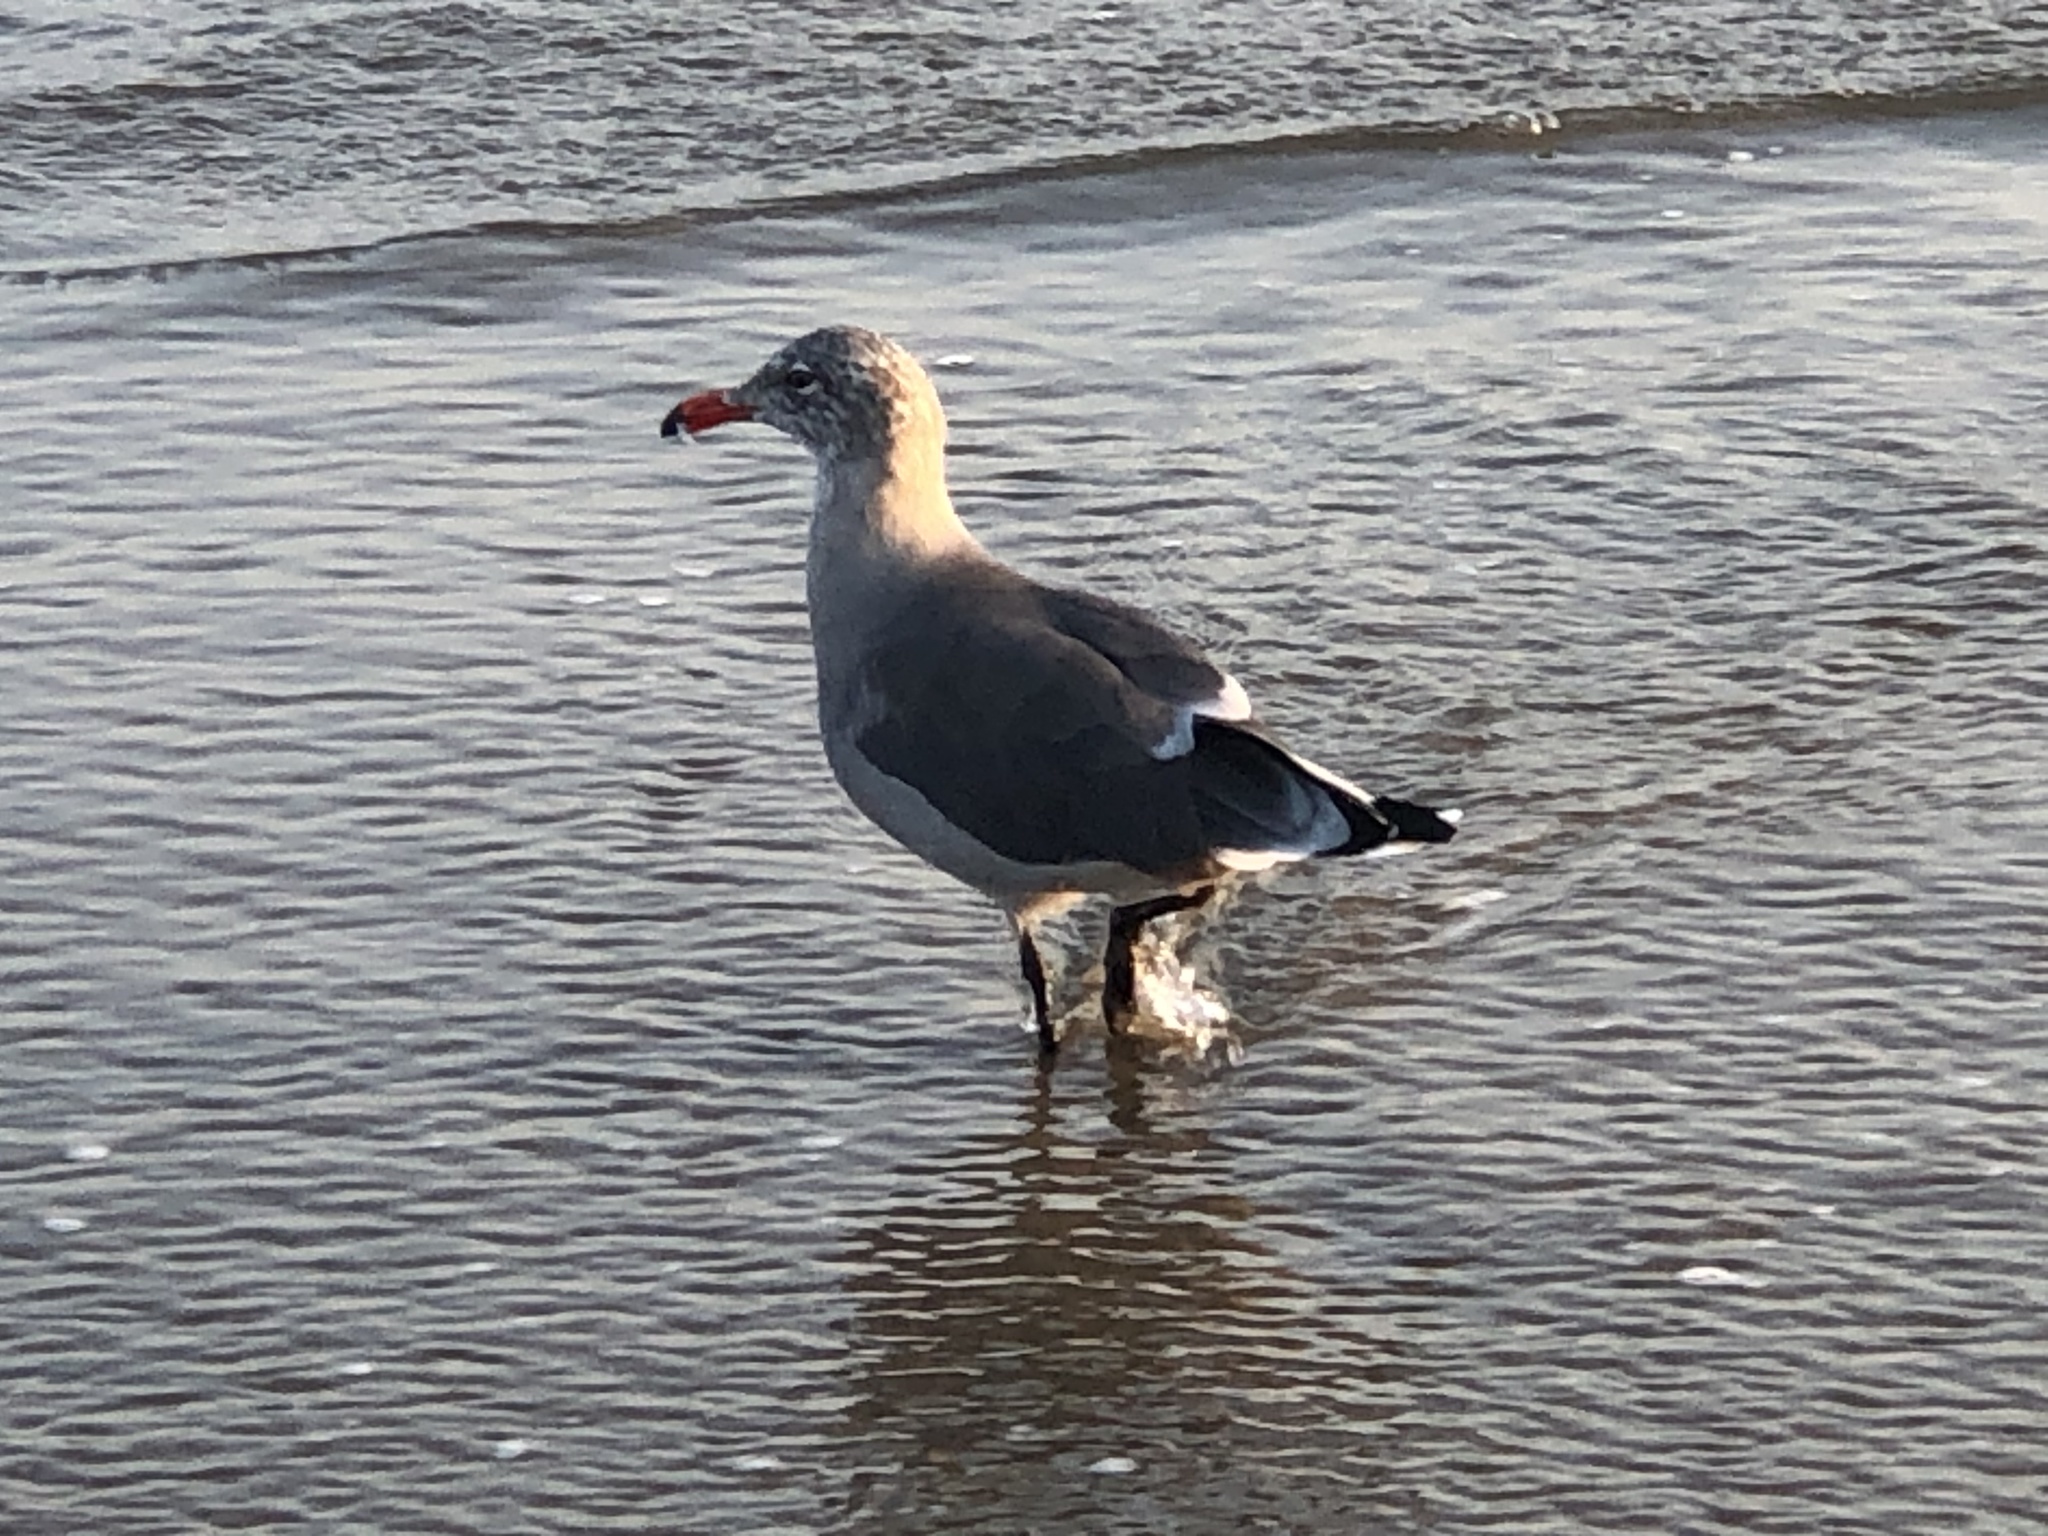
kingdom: Animalia
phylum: Chordata
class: Aves
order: Charadriiformes
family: Laridae
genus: Larus
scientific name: Larus heermanni
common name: Heermann's gull
